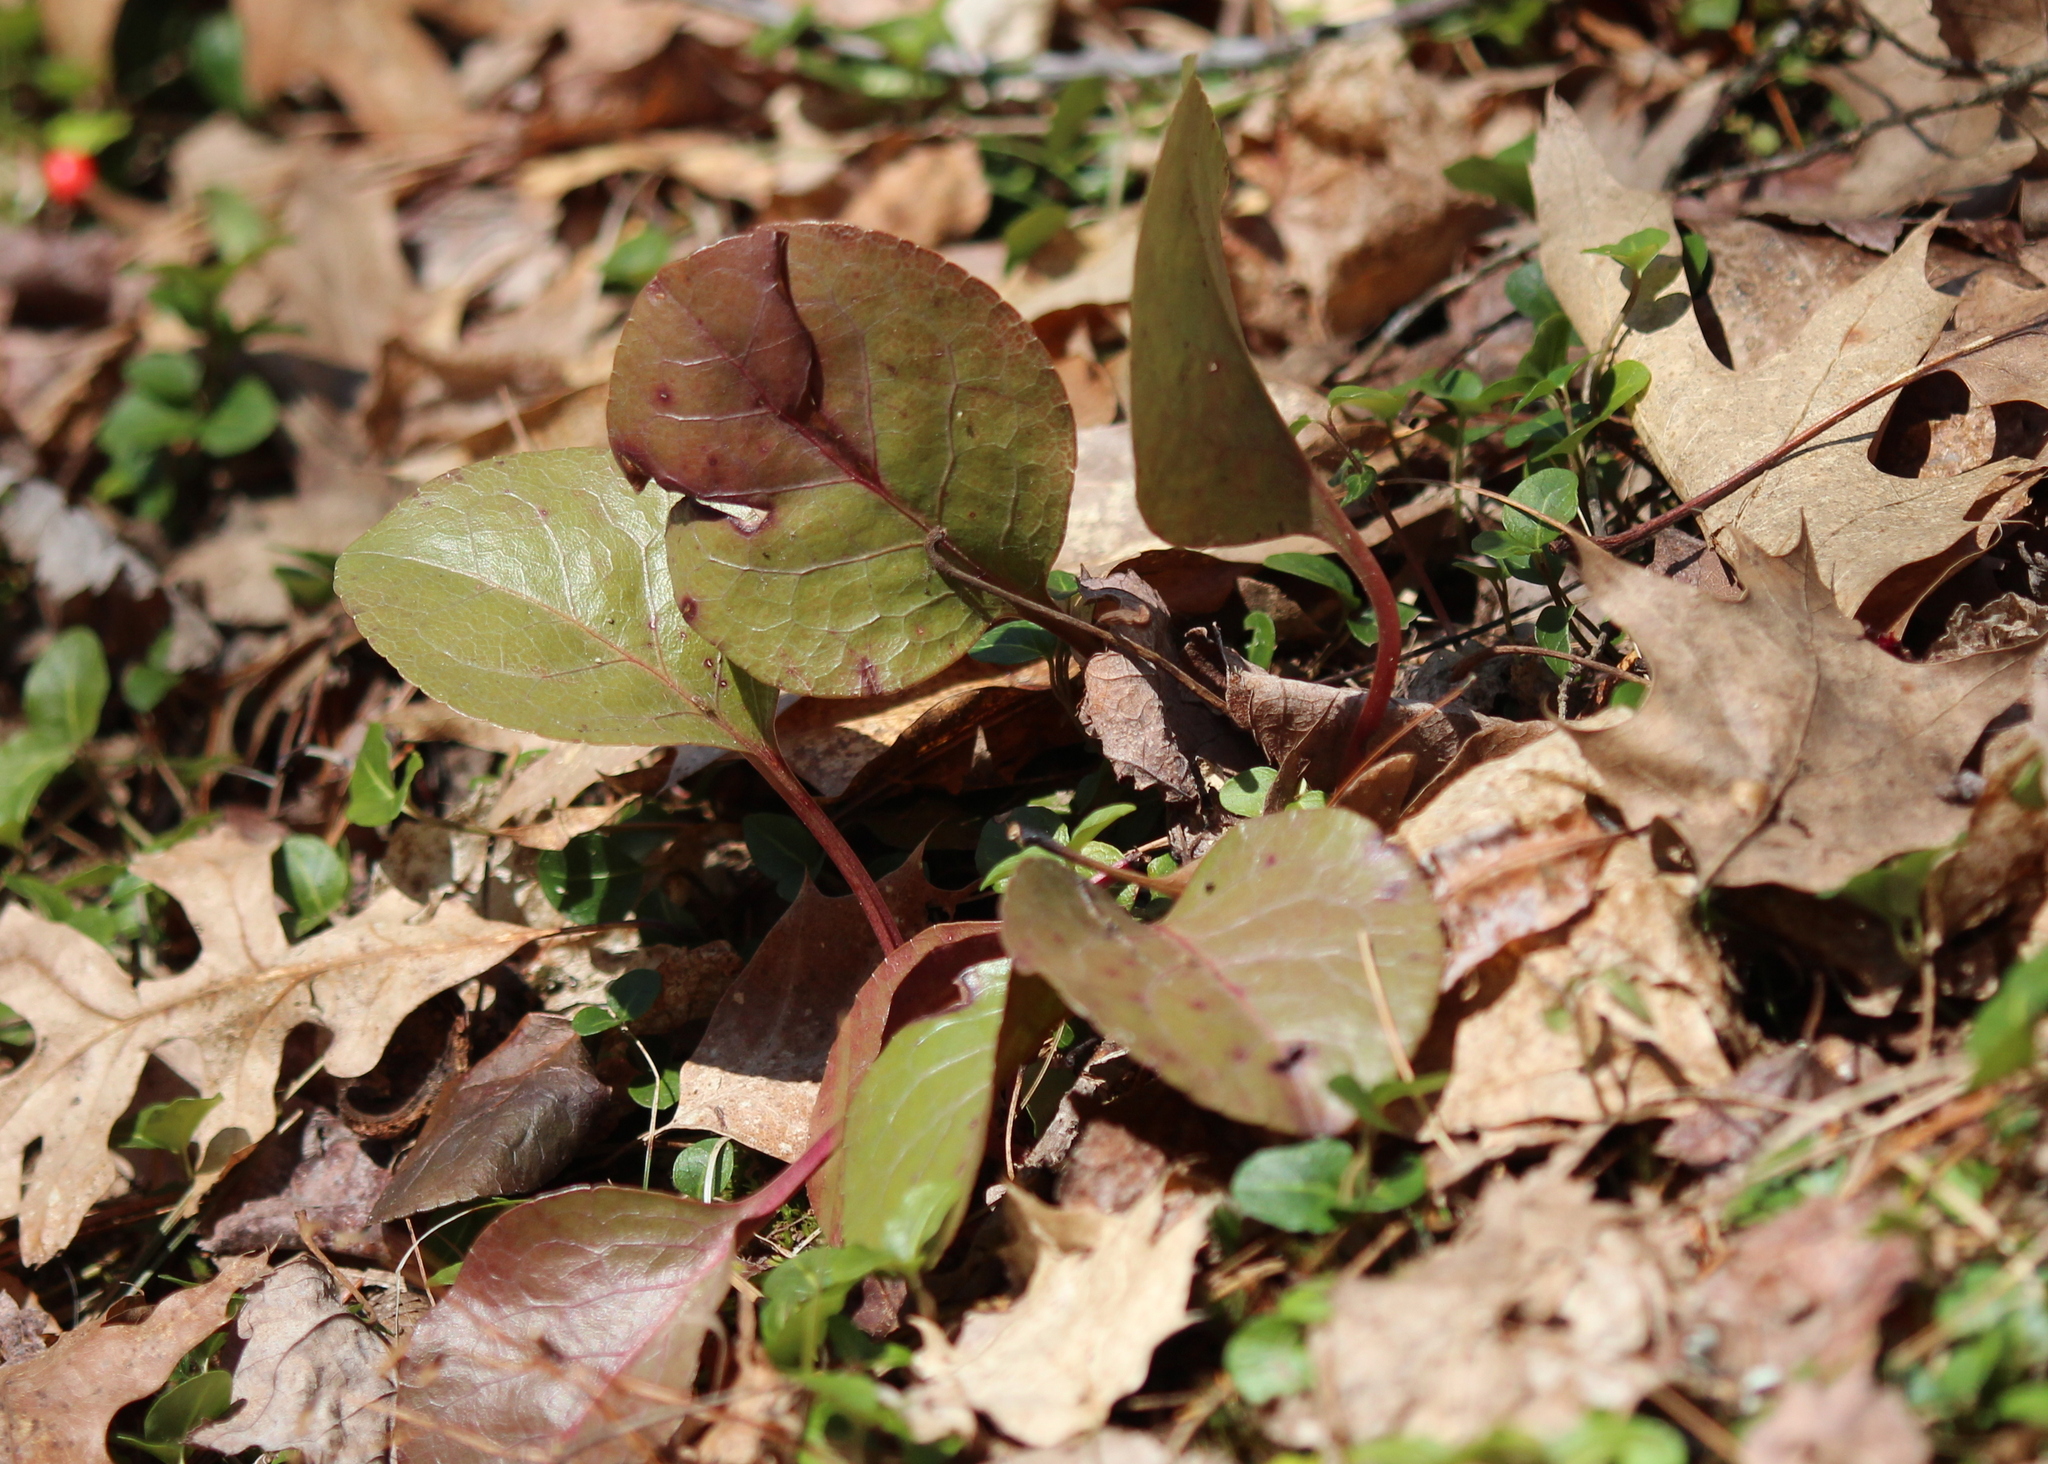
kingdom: Plantae
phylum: Tracheophyta
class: Magnoliopsida
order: Ericales
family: Ericaceae
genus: Pyrola
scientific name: Pyrola elliptica
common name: Shinleaf
